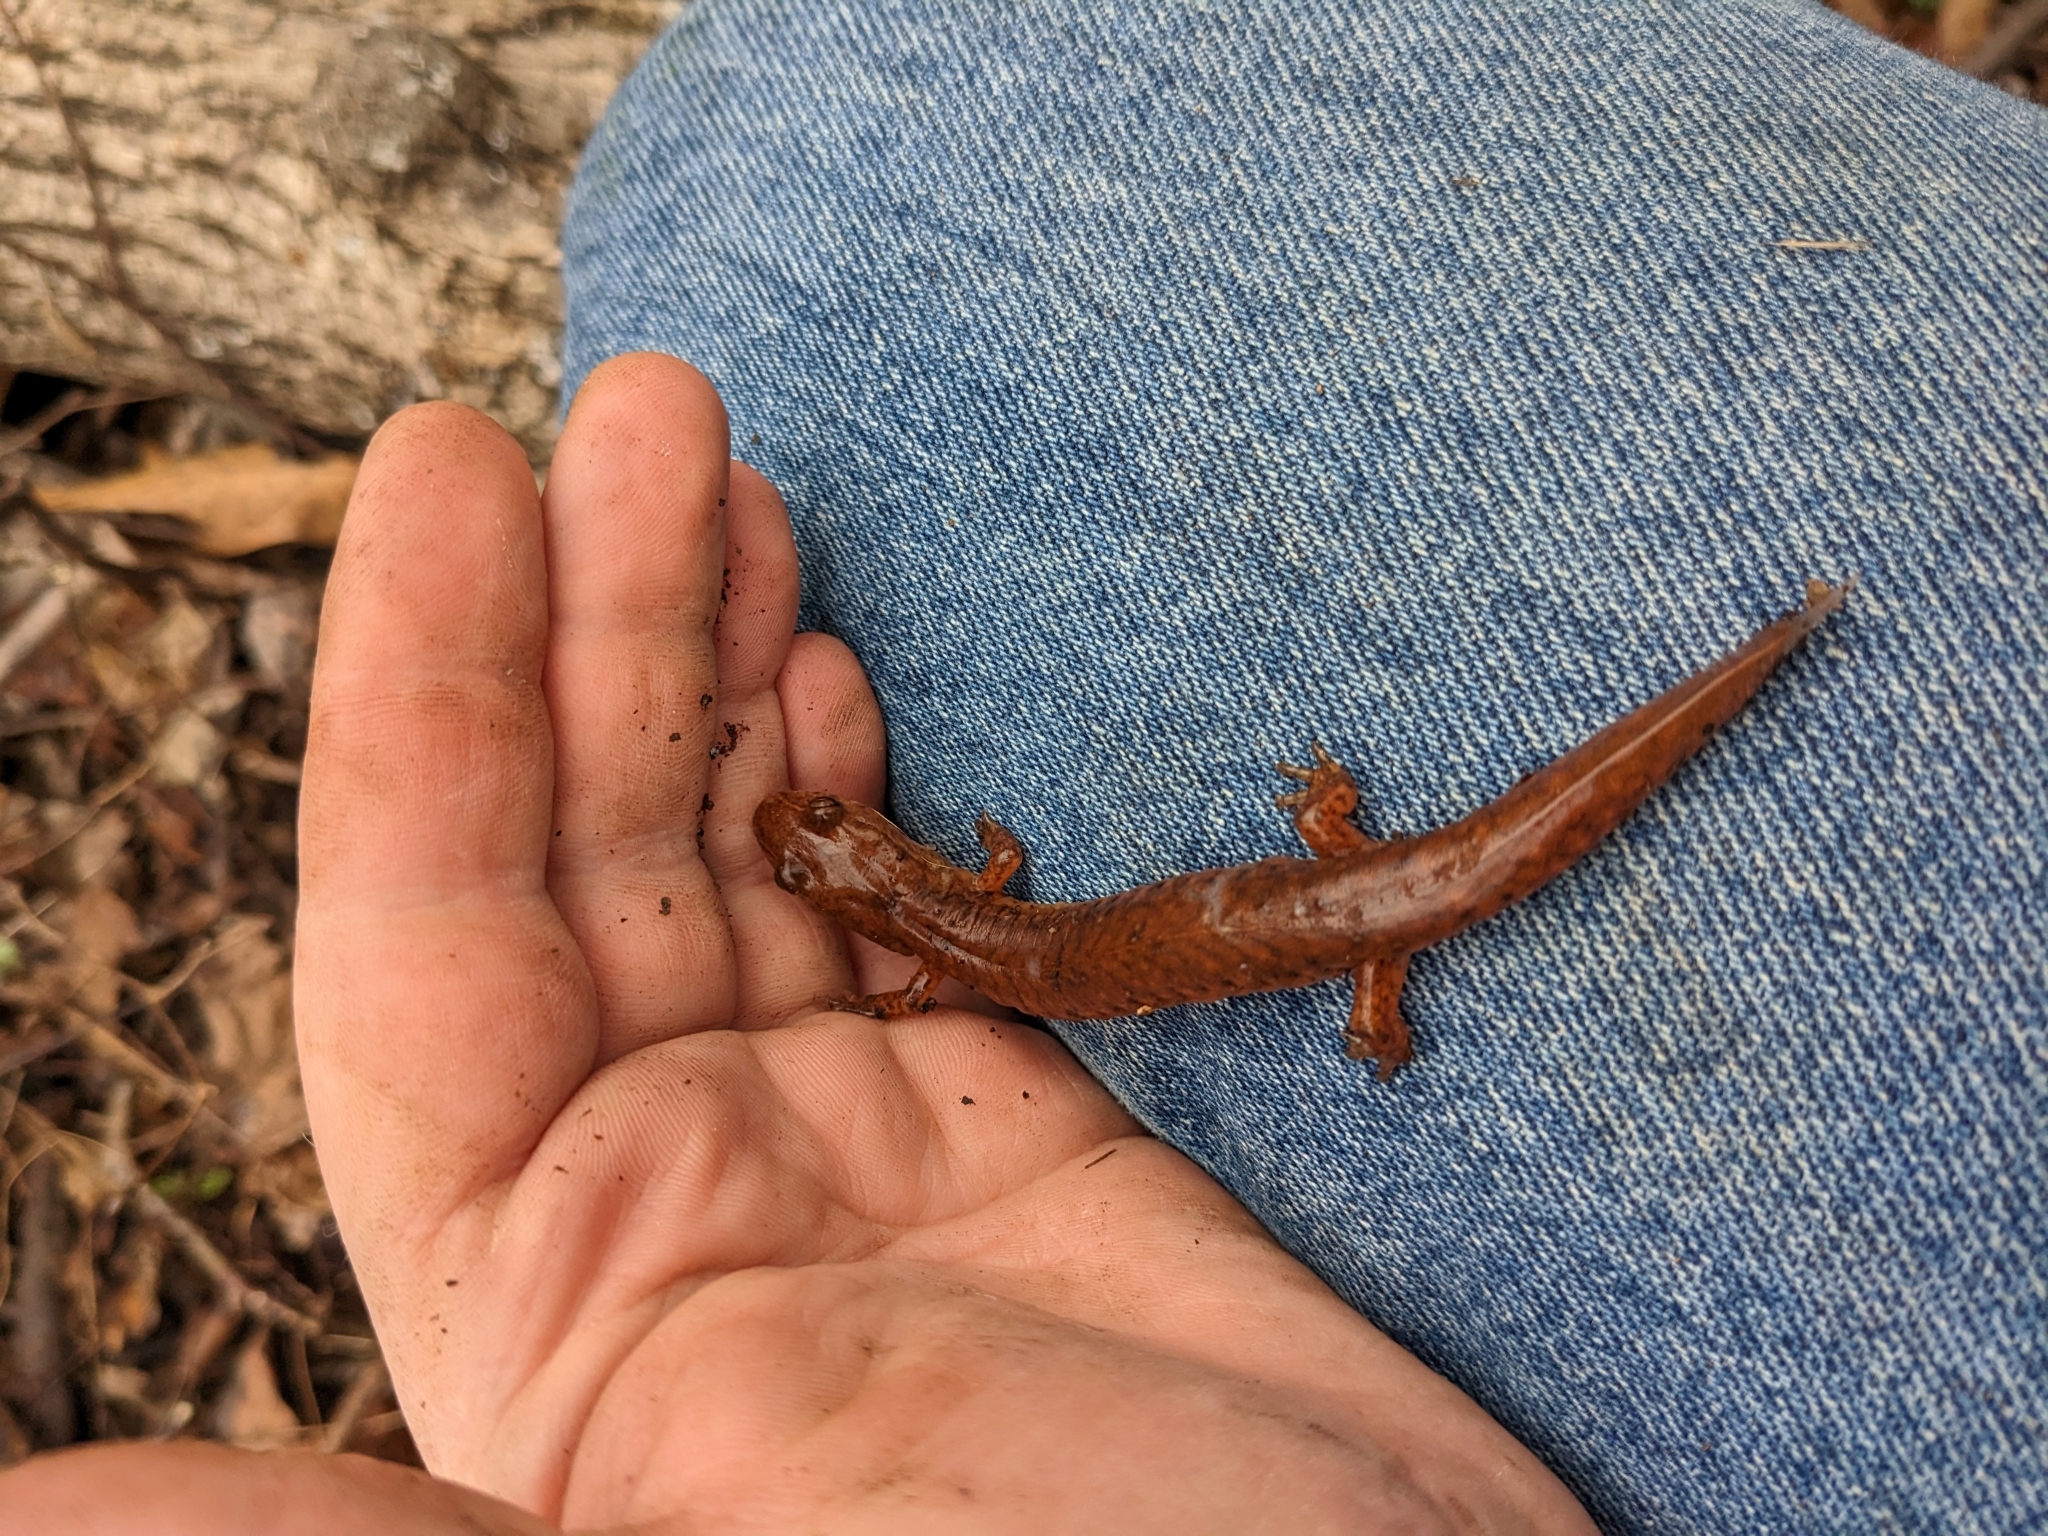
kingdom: Animalia
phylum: Chordata
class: Amphibia
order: Caudata
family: Plethodontidae
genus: Gyrinophilus
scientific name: Gyrinophilus porphyriticus
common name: Spring salamander
